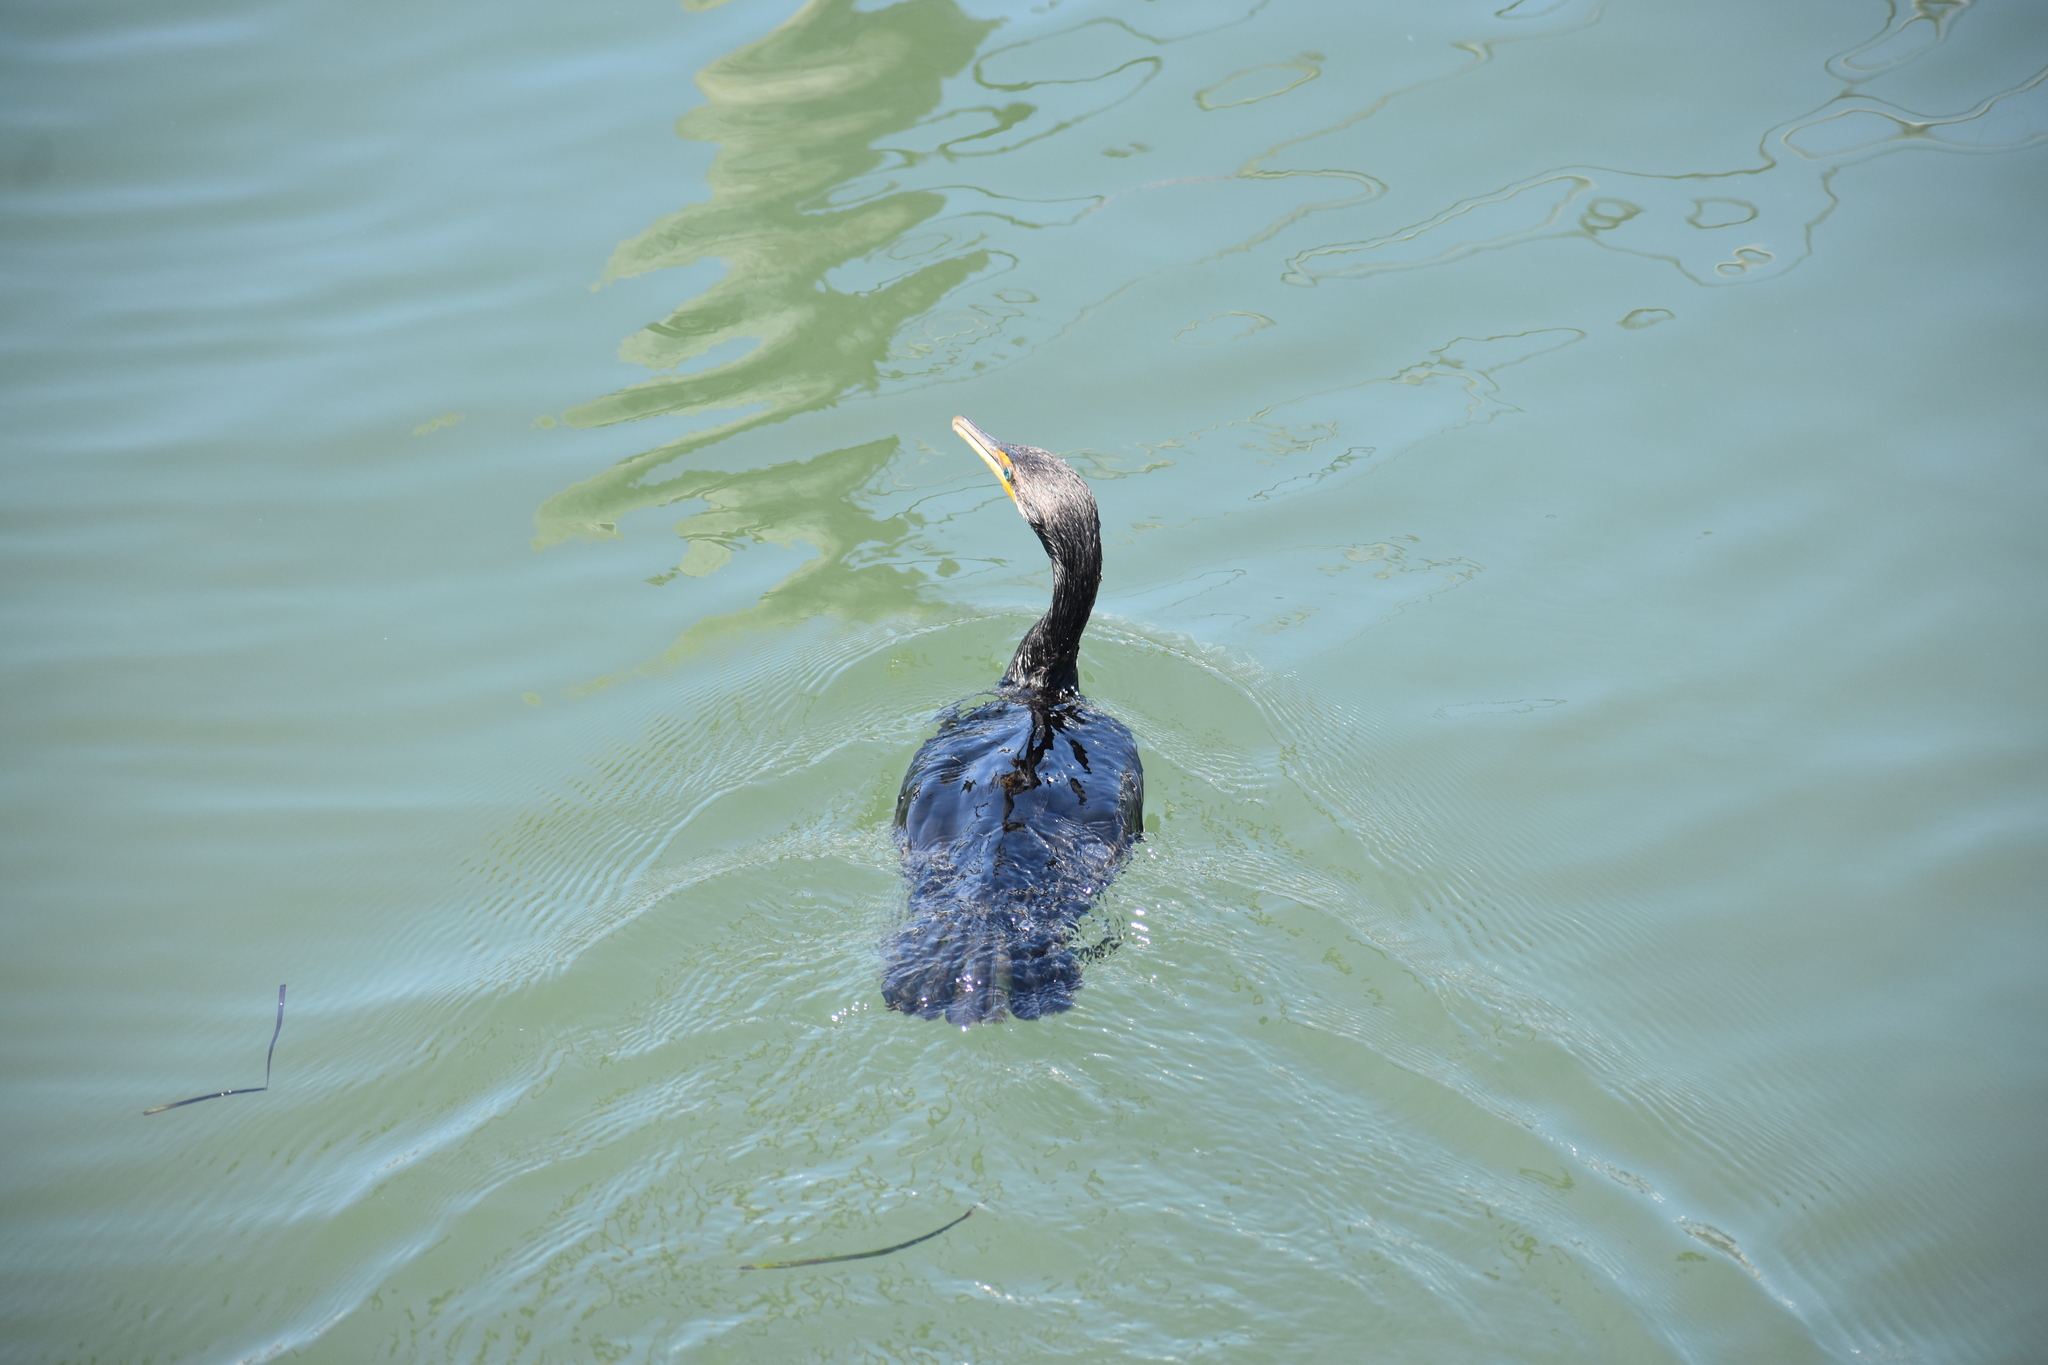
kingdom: Animalia
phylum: Chordata
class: Aves
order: Suliformes
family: Phalacrocoracidae
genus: Phalacrocorax
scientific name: Phalacrocorax auritus
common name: Double-crested cormorant
